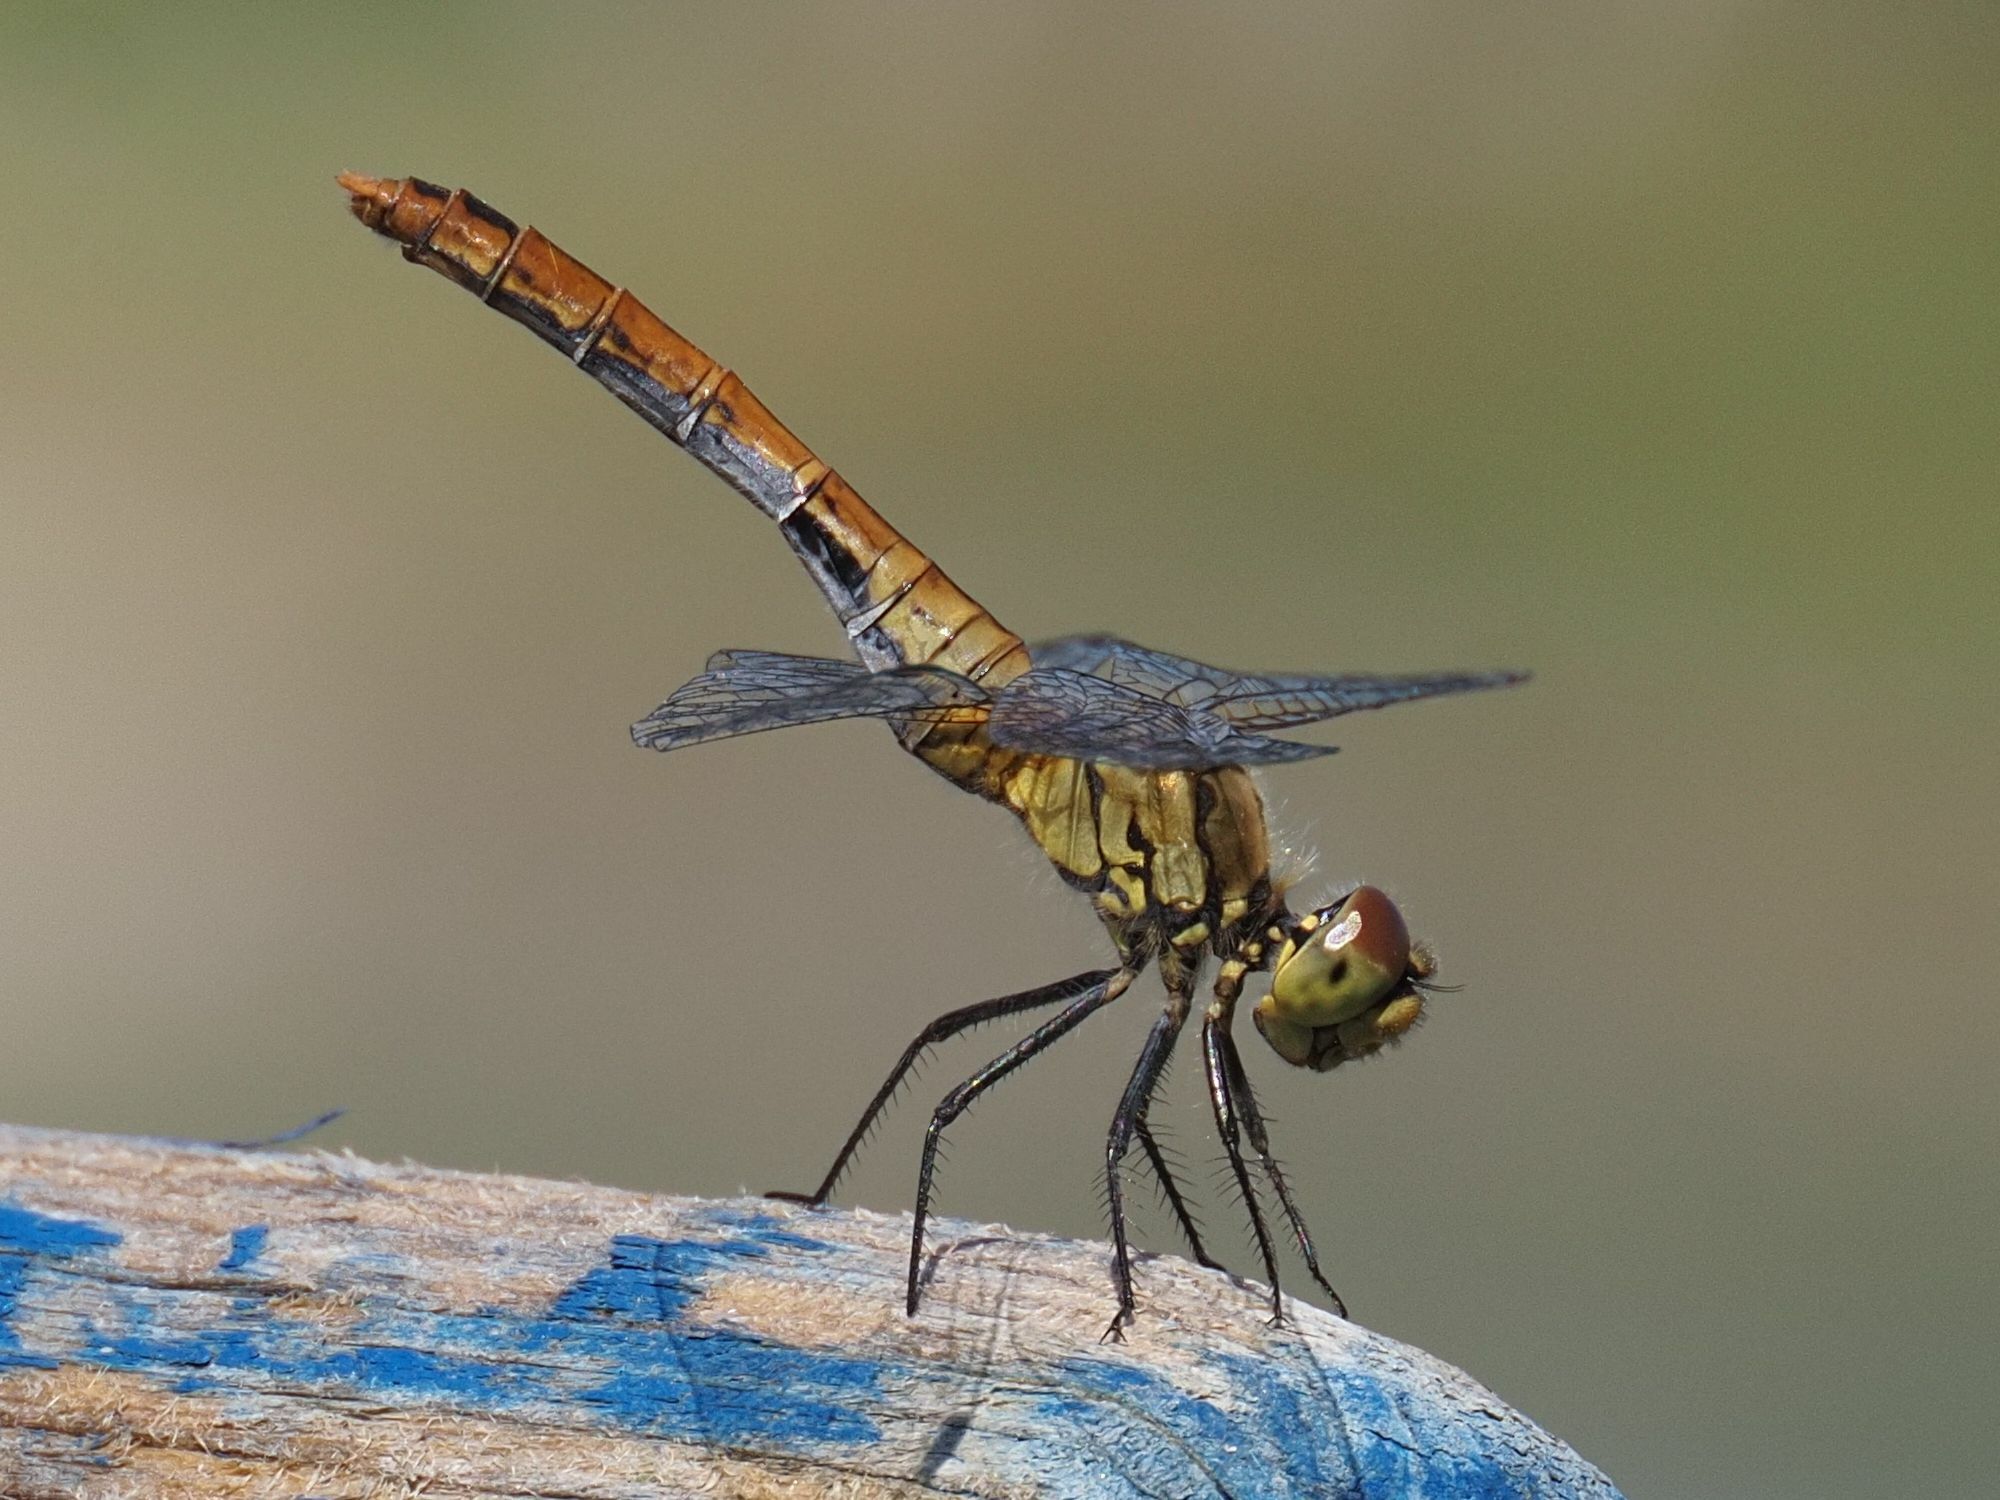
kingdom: Animalia
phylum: Arthropoda
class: Insecta
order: Odonata
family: Libellulidae
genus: Sympetrum
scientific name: Sympetrum sanguineum
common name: Ruddy darter
